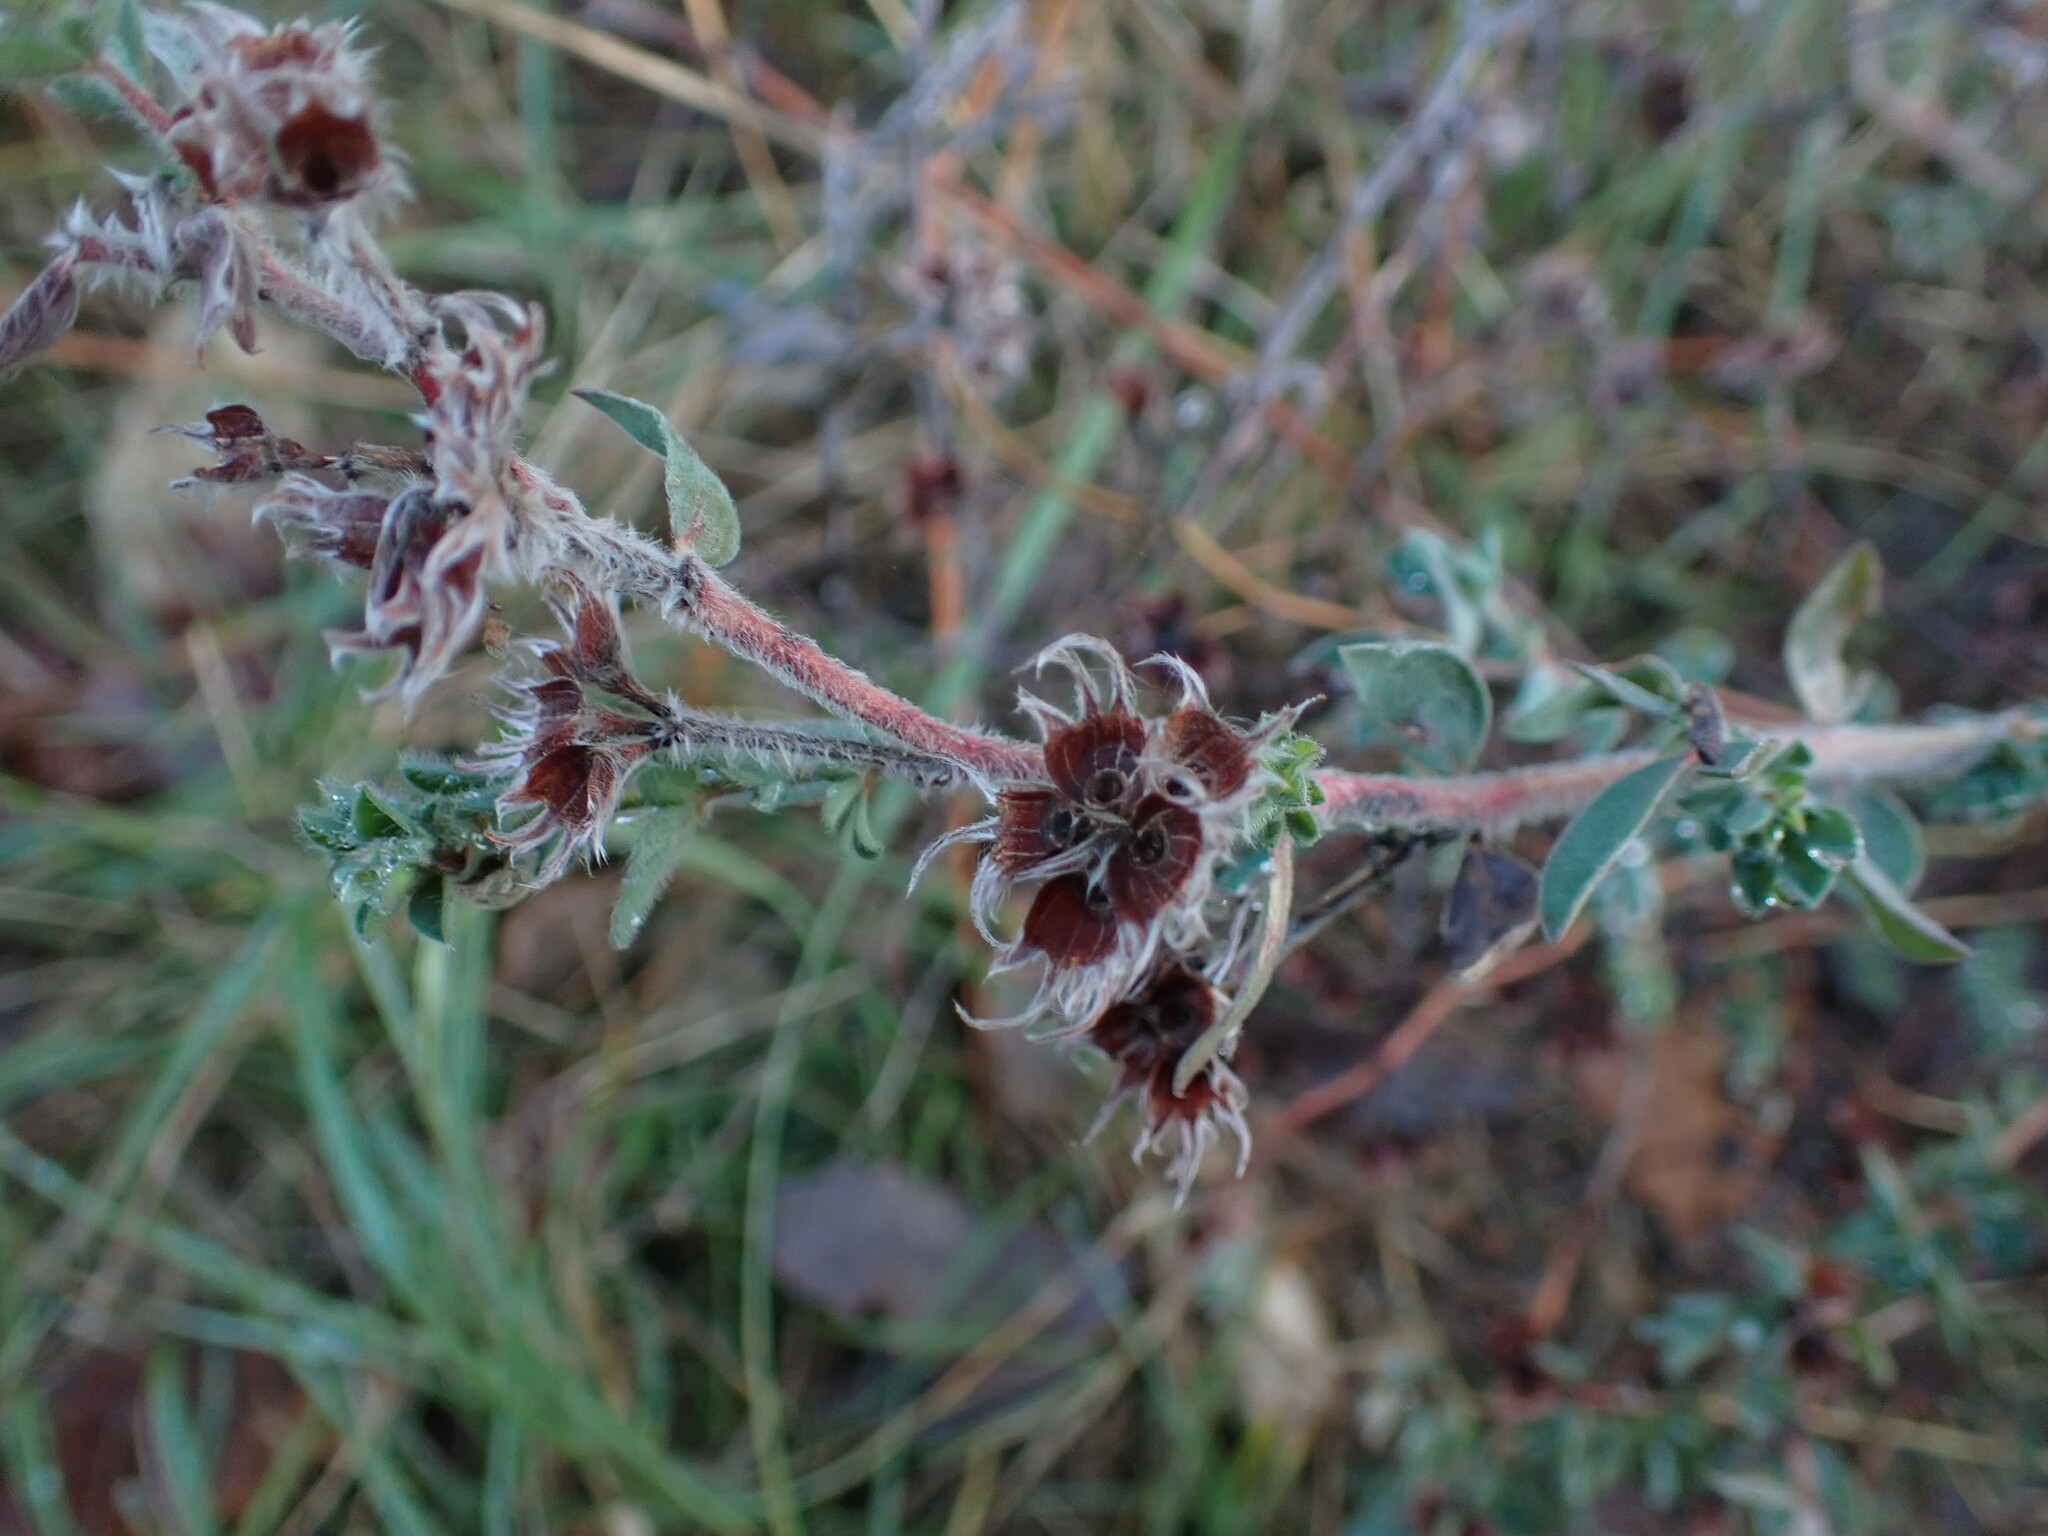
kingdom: Plantae
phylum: Tracheophyta
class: Magnoliopsida
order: Fabales
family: Fabaceae
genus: Lotus
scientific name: Lotus hirsutus
